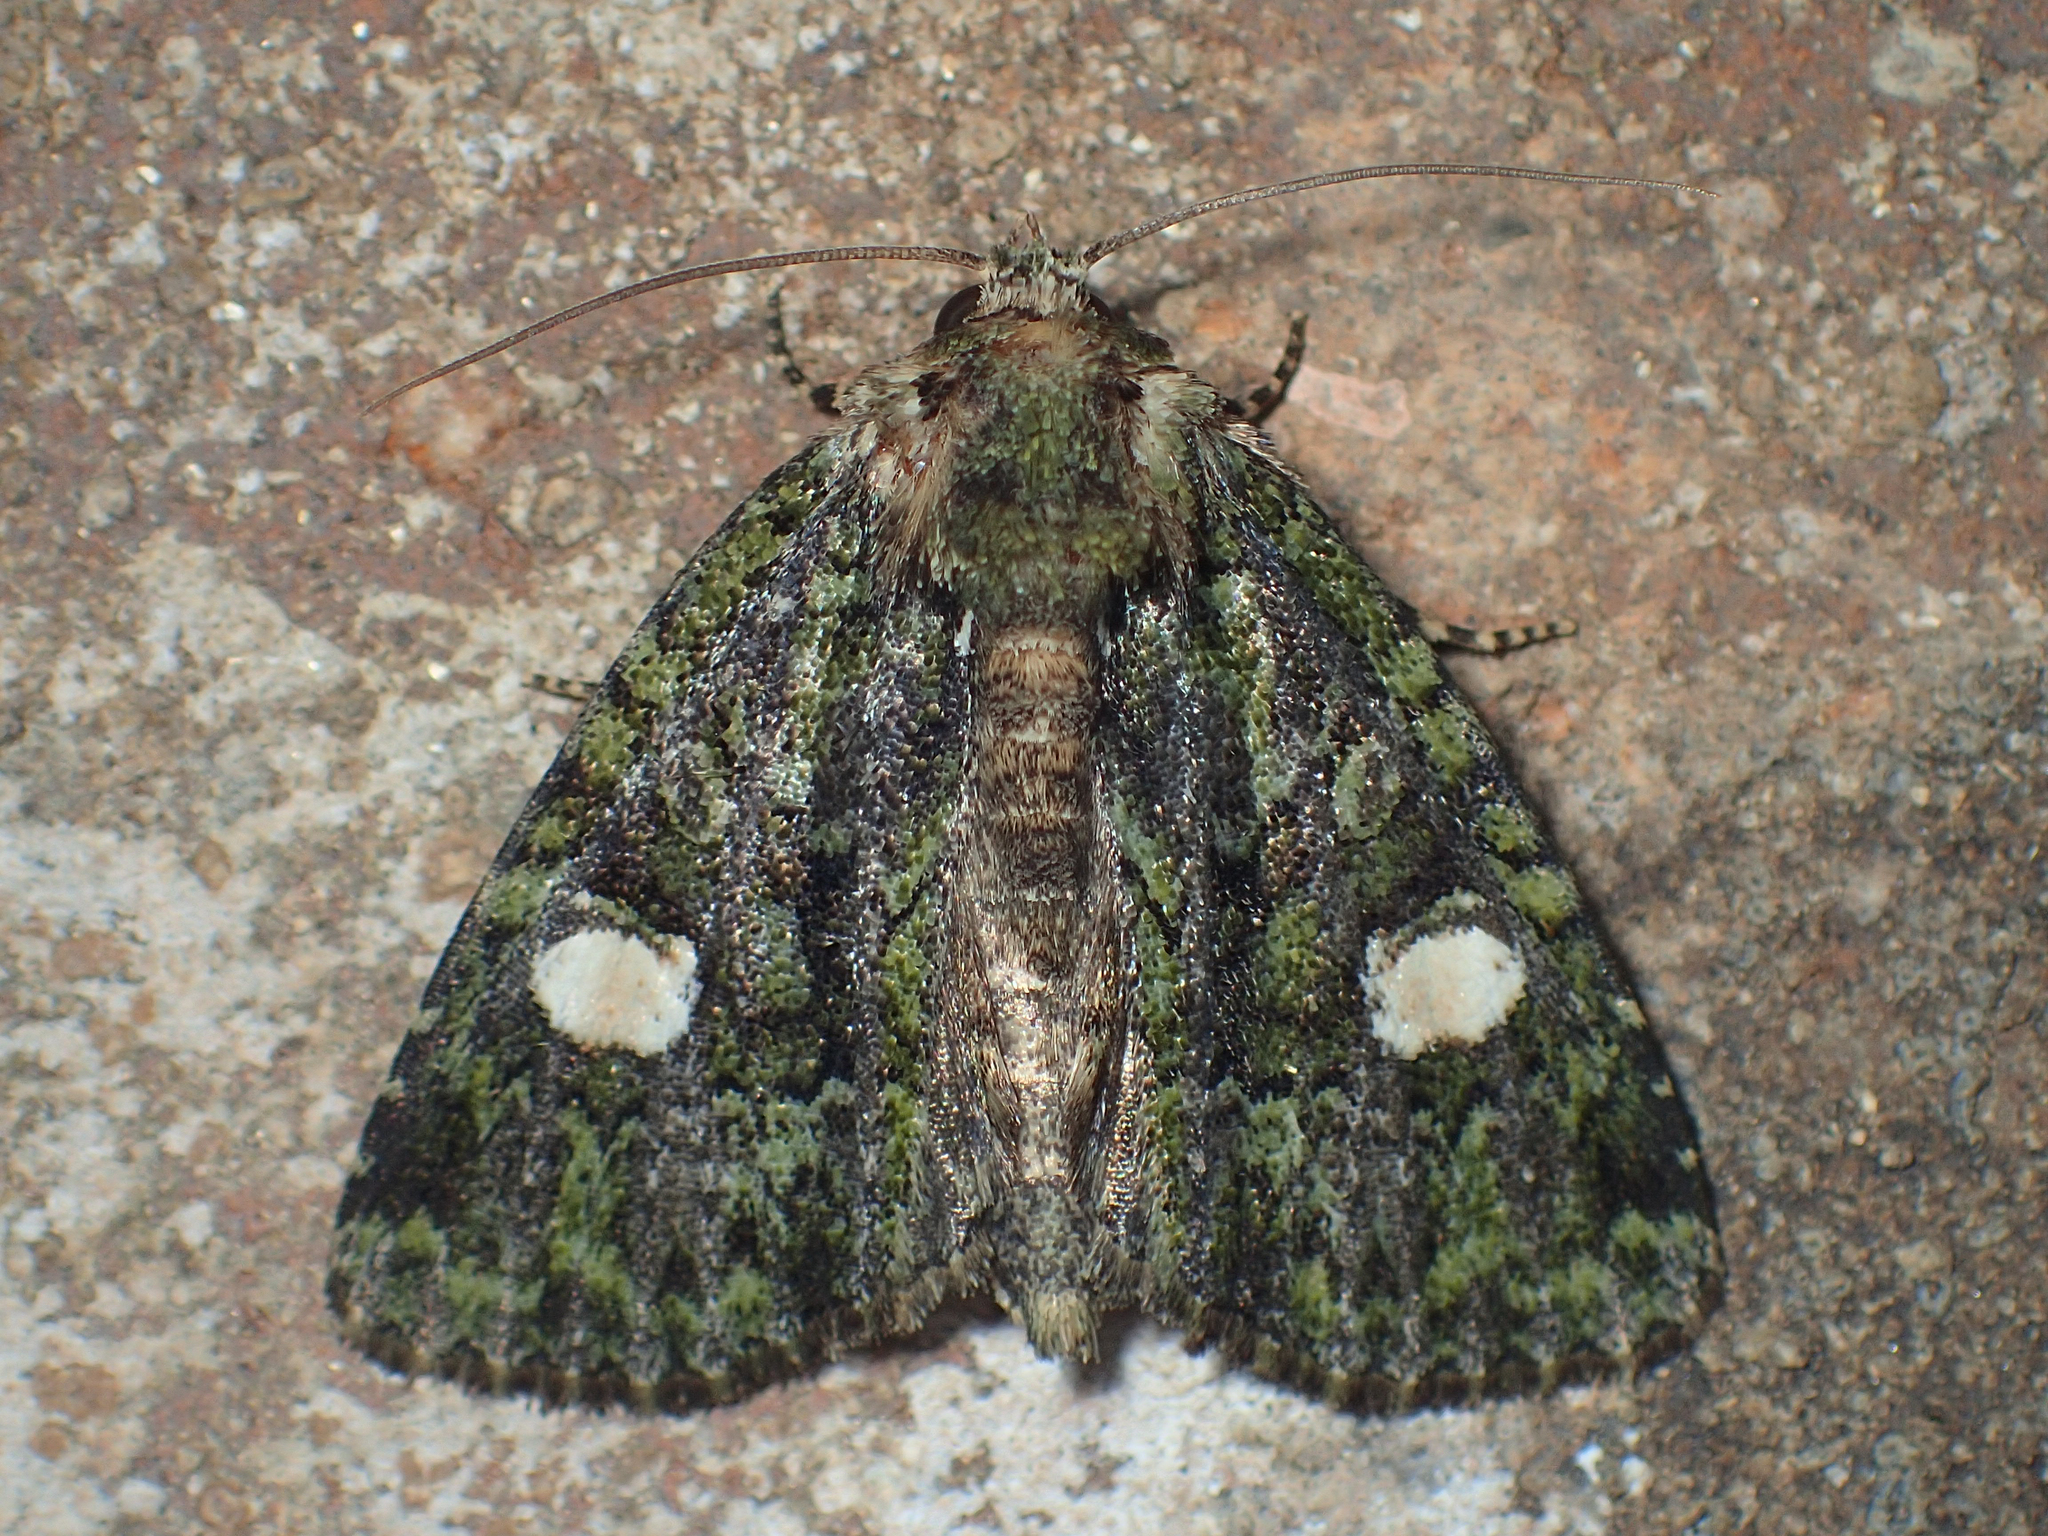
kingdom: Animalia
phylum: Arthropoda
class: Insecta
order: Lepidoptera
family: Noctuidae
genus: Phosphila
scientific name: Phosphila miselioides
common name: Spotted phosphila moth
